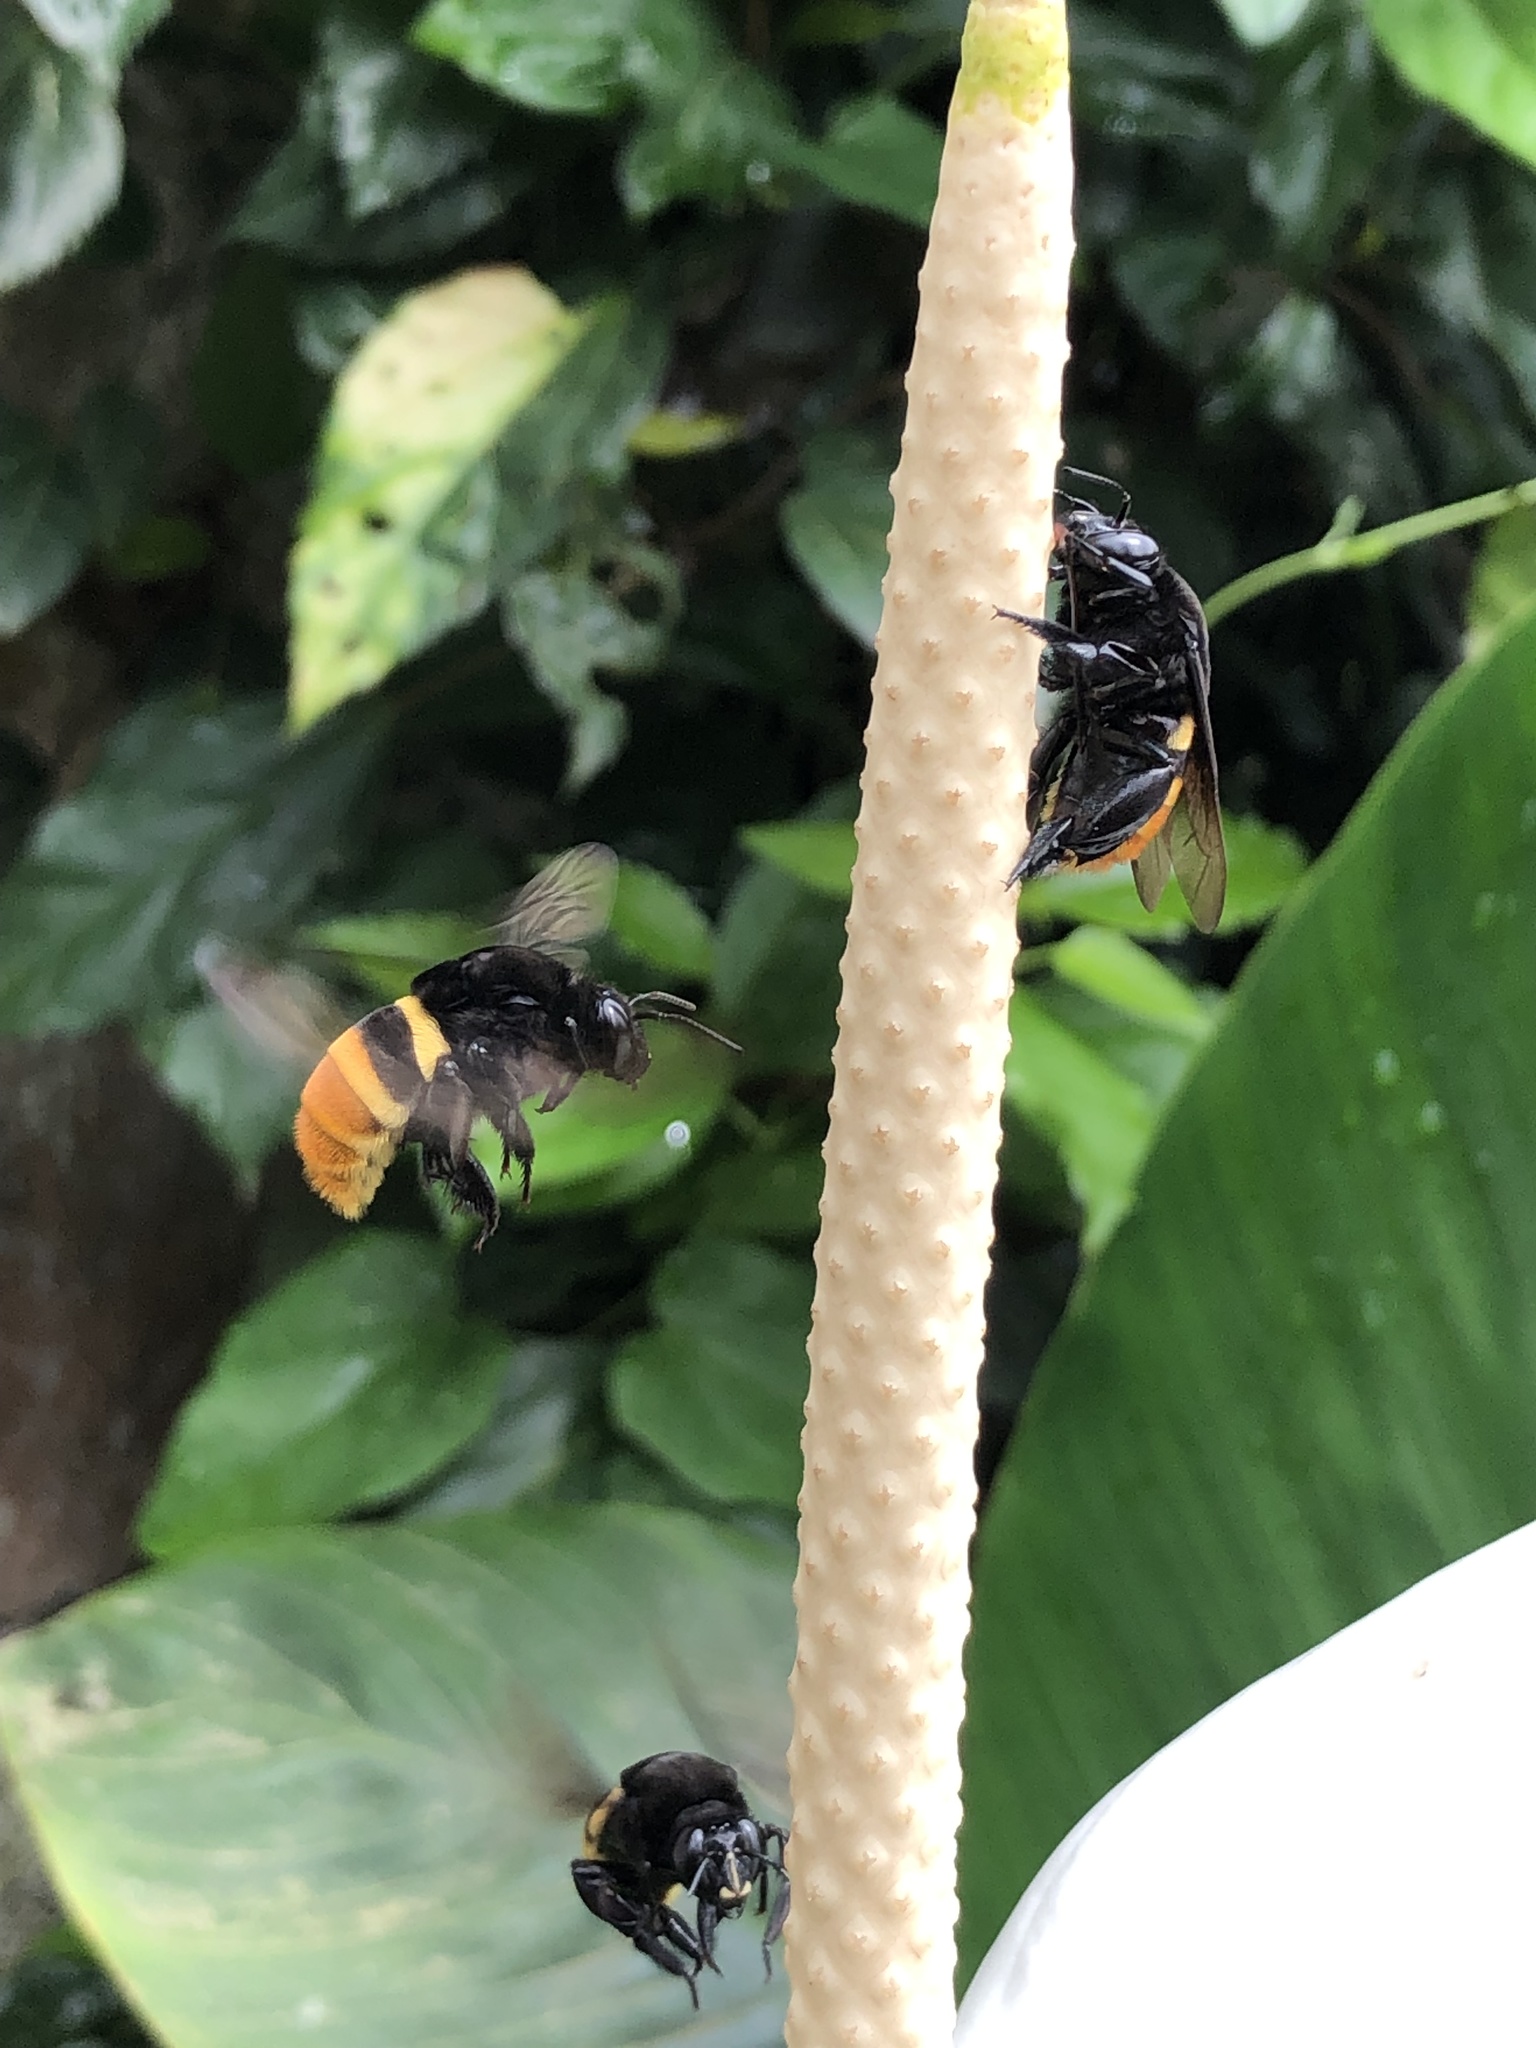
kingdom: Animalia
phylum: Arthropoda
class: Insecta
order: Hymenoptera
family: Apidae
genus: Eulaema
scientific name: Eulaema cingulata
